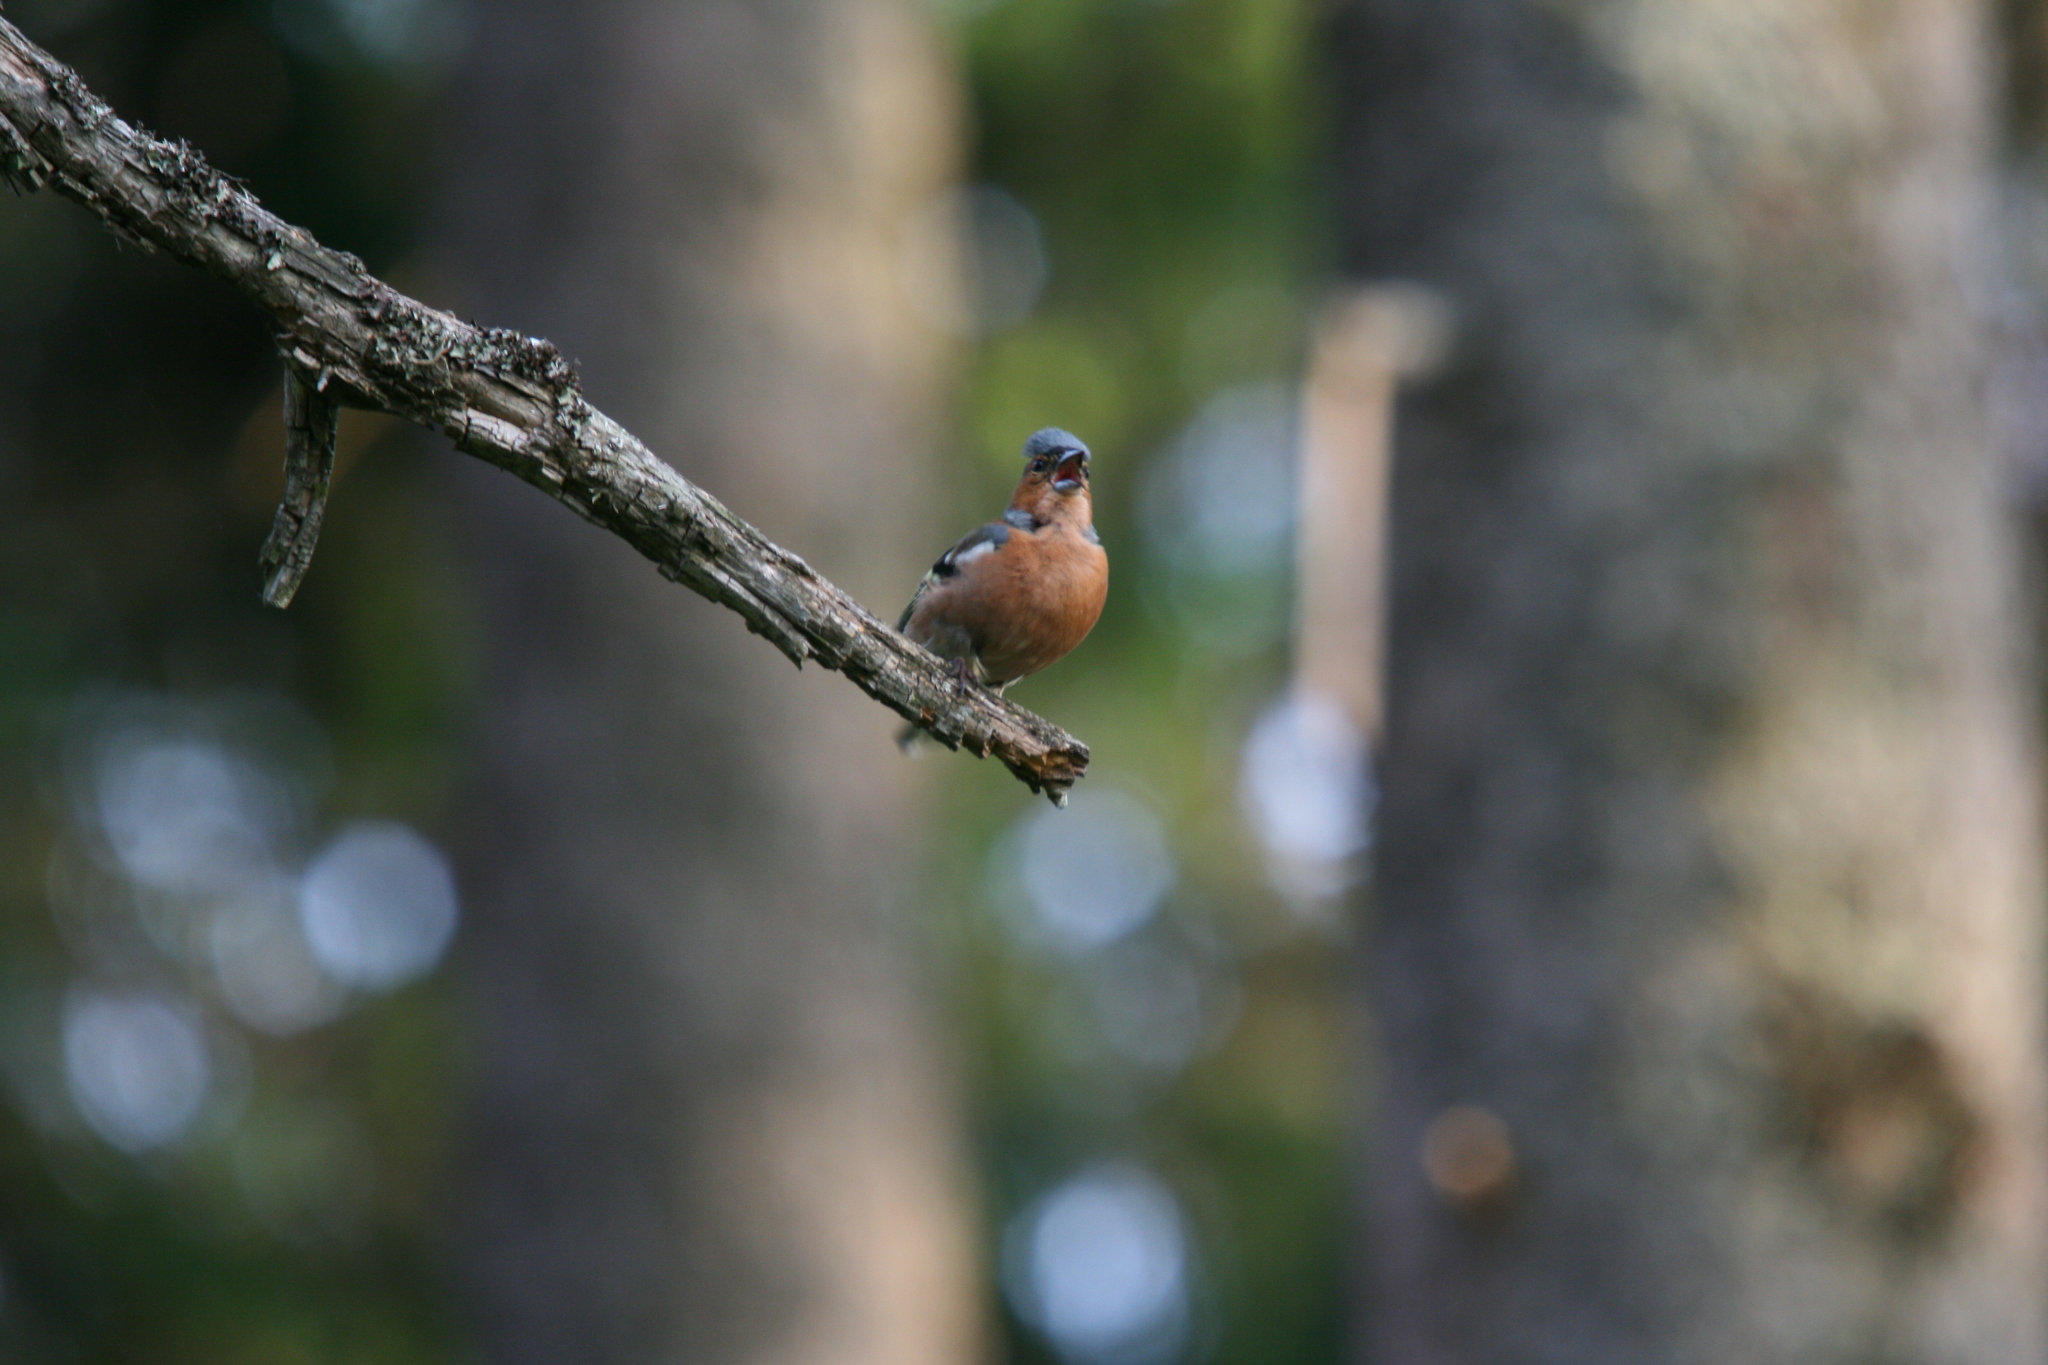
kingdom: Animalia
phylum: Chordata
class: Aves
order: Passeriformes
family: Fringillidae
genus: Fringilla
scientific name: Fringilla coelebs
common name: Common chaffinch
